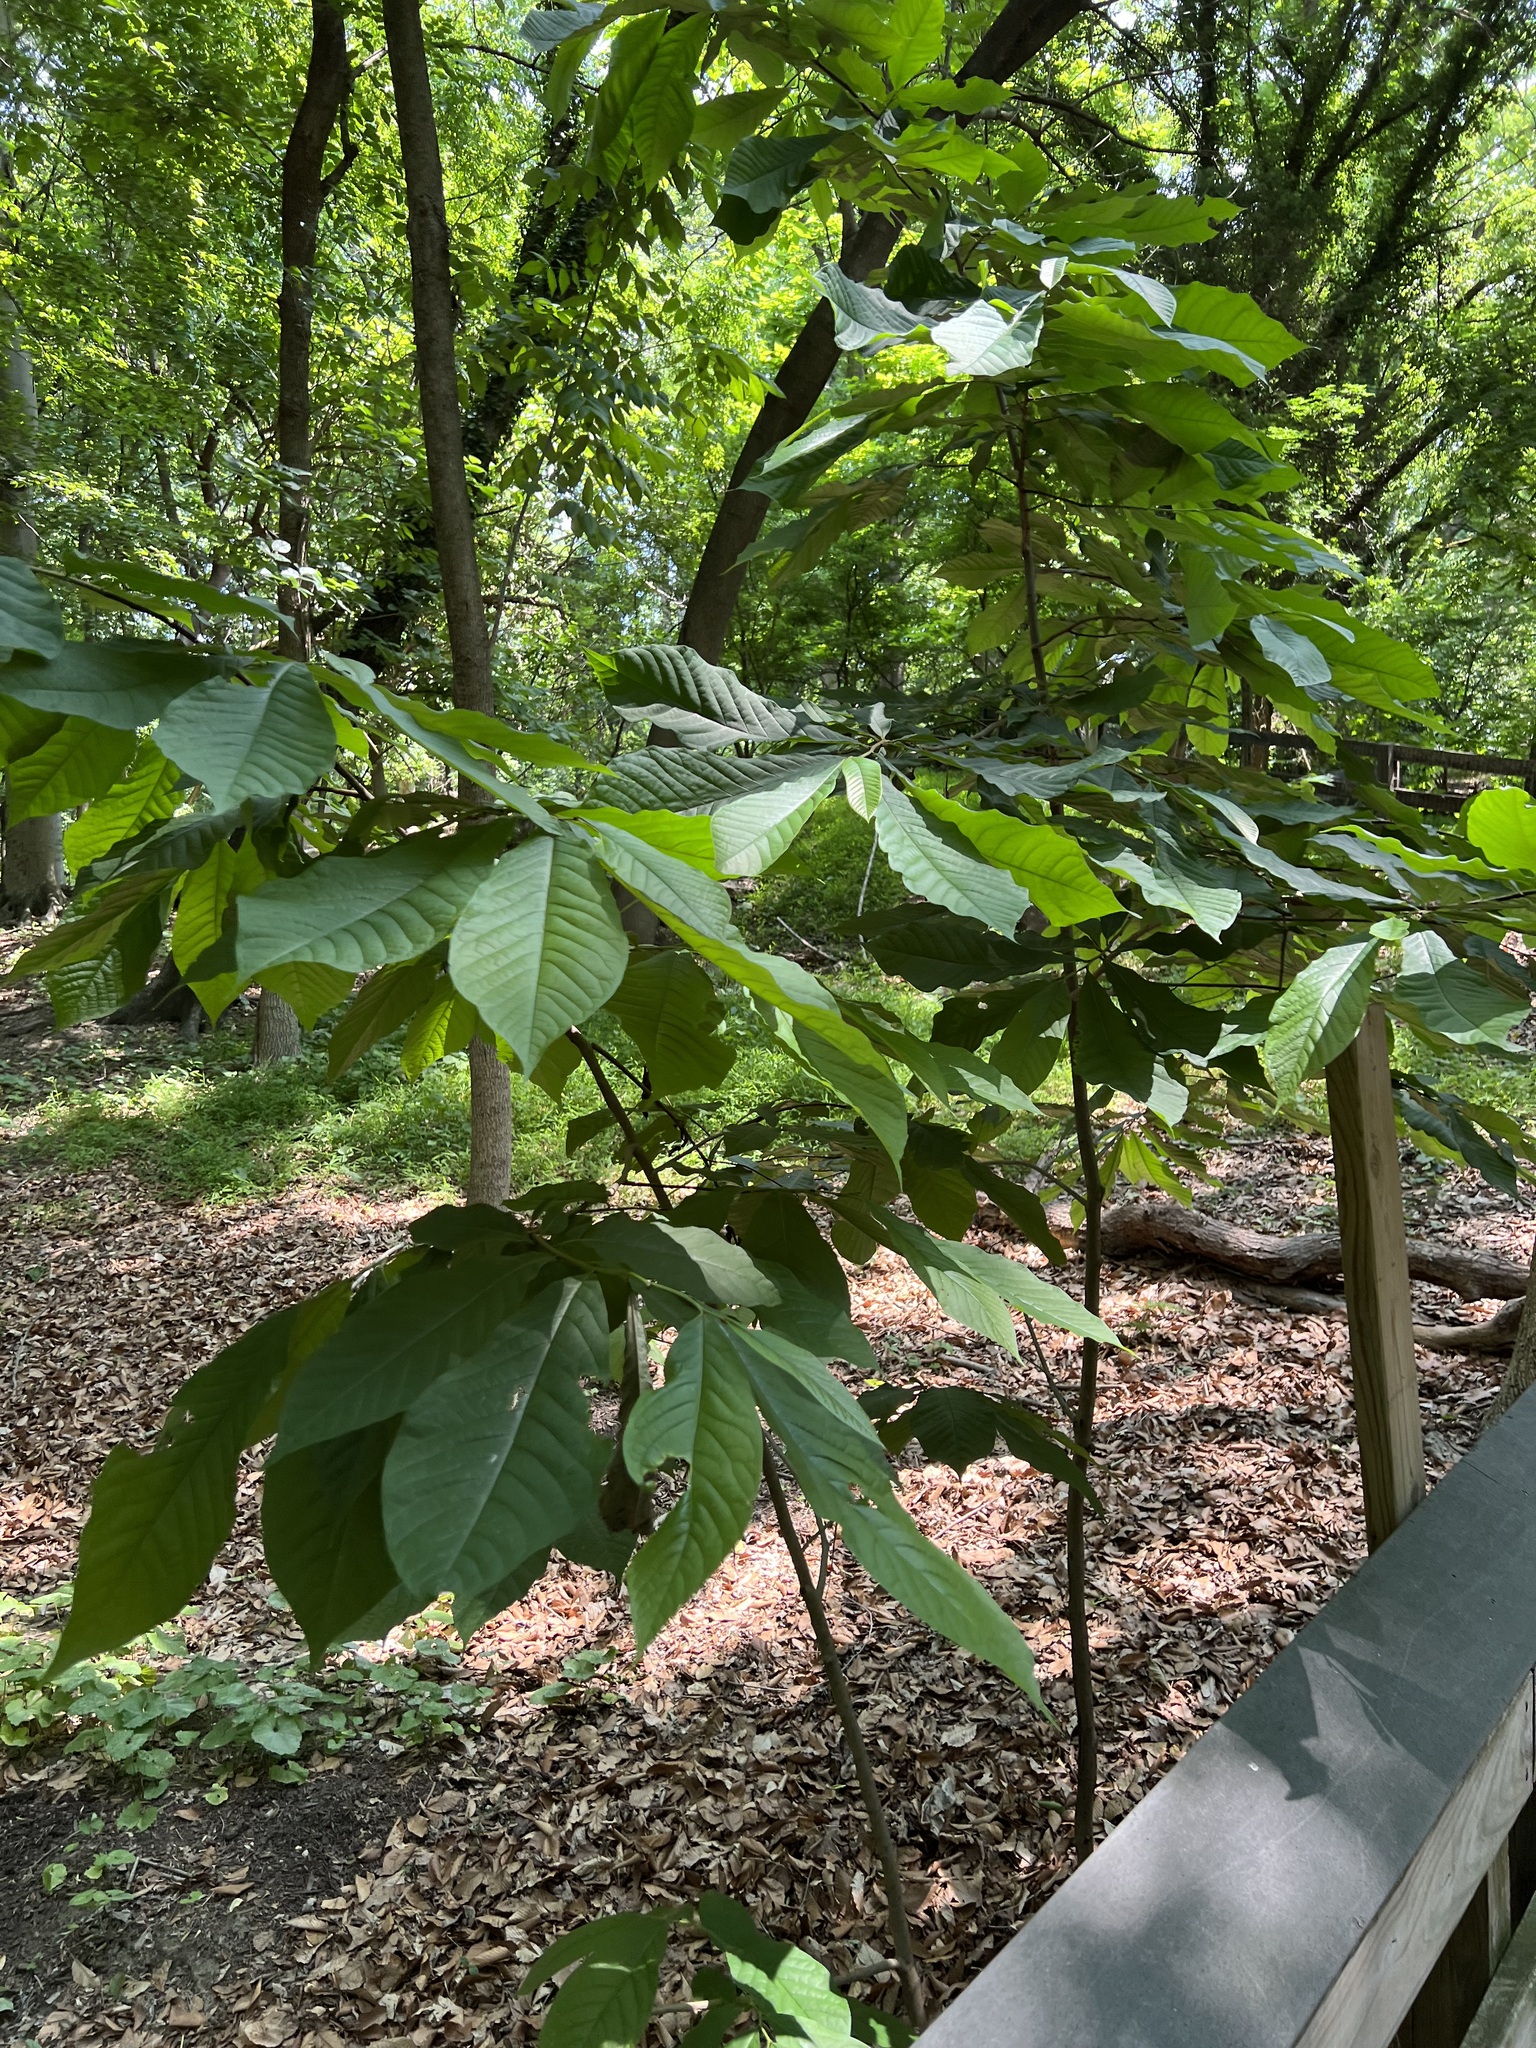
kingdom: Plantae
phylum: Tracheophyta
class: Magnoliopsida
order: Magnoliales
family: Annonaceae
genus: Asimina
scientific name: Asimina triloba
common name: Dog-banana
